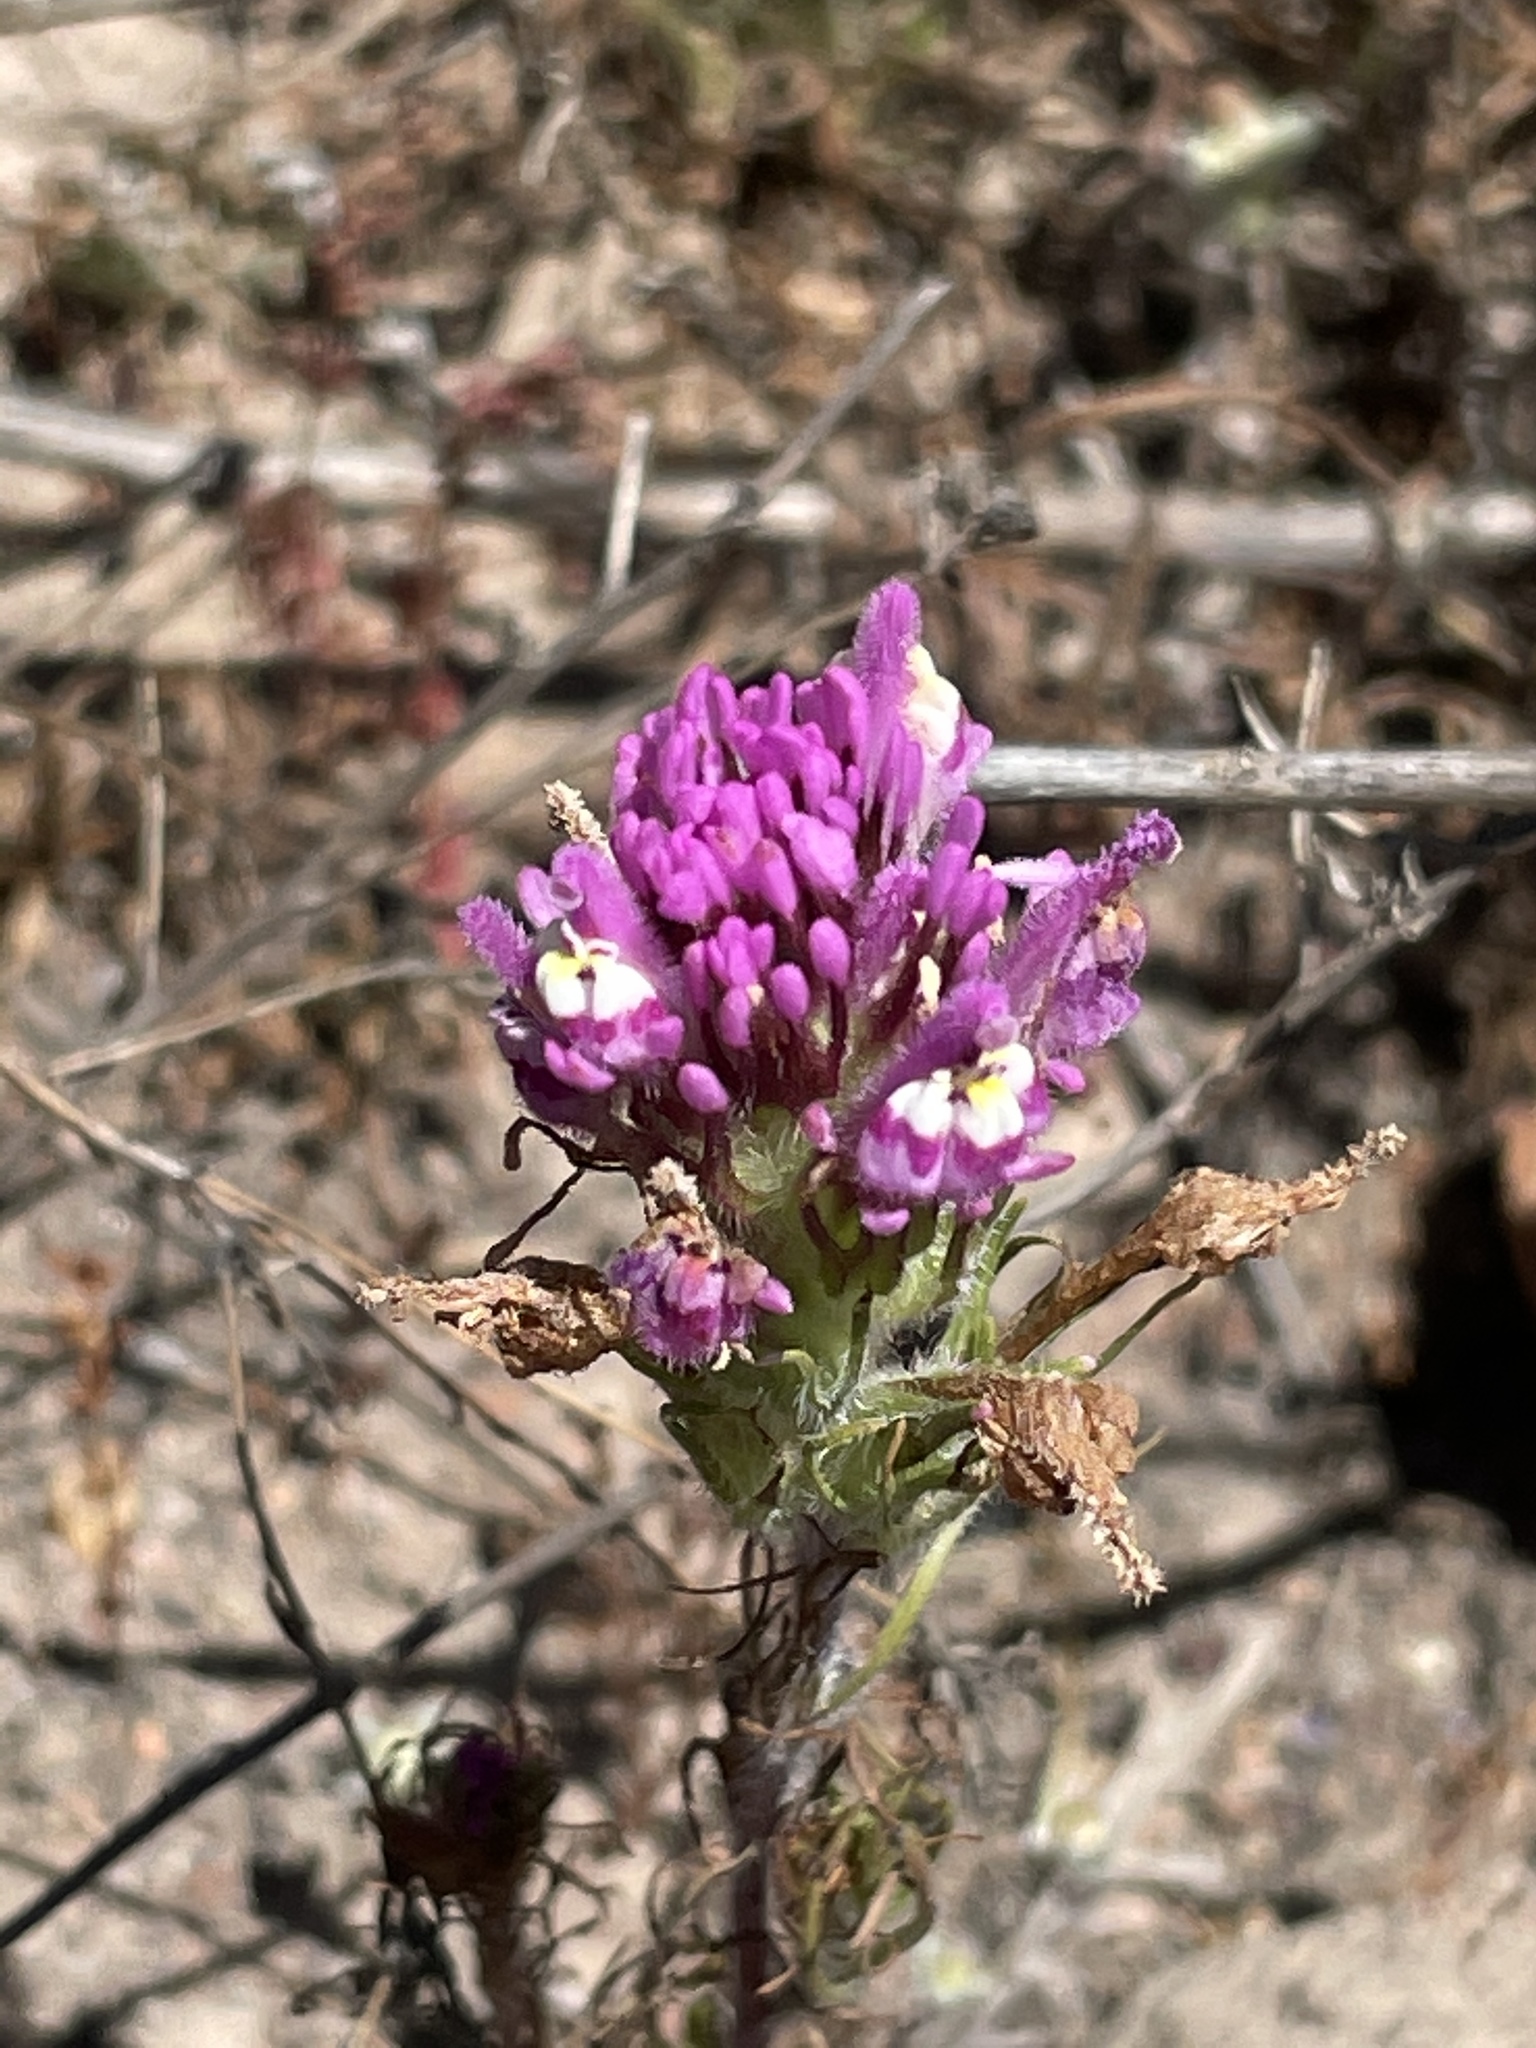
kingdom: Plantae
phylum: Tracheophyta
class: Magnoliopsida
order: Lamiales
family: Orobanchaceae
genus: Castilleja
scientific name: Castilleja exserta
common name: Purple owl-clover
